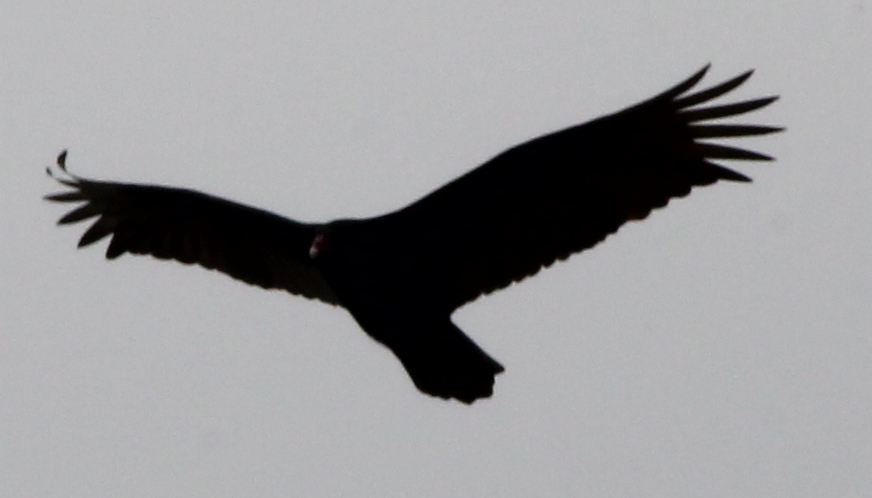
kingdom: Animalia
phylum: Chordata
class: Aves
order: Accipitriformes
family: Cathartidae
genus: Cathartes
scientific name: Cathartes aura
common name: Turkey vulture
